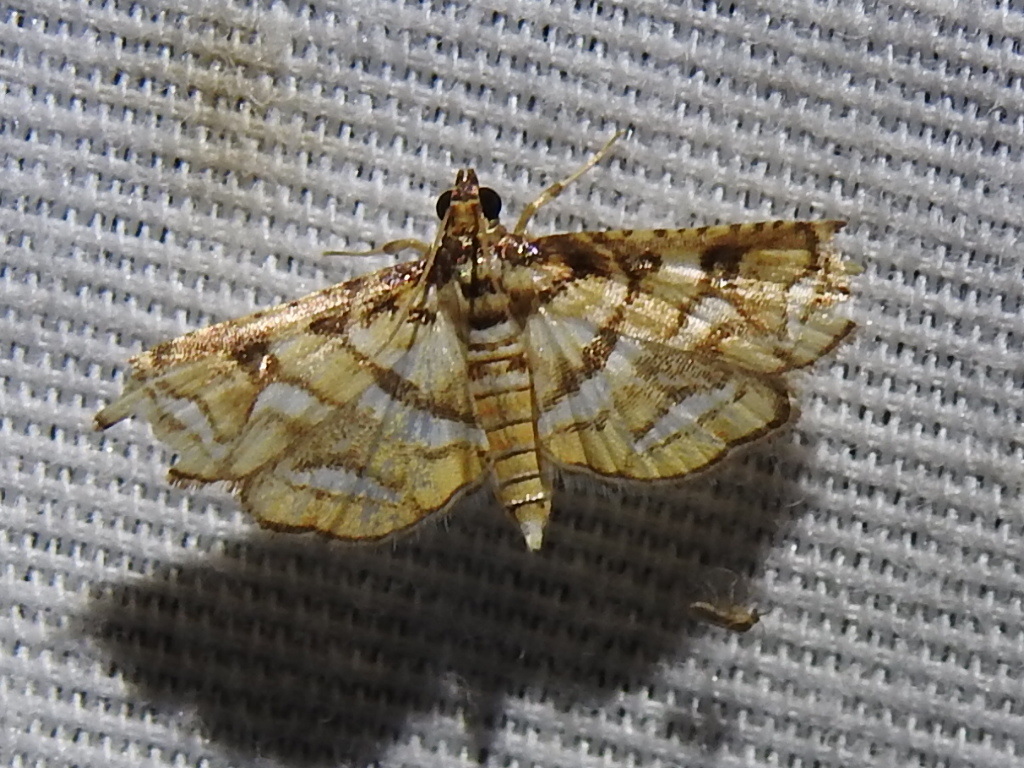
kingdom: Animalia
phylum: Arthropoda
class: Insecta
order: Lepidoptera
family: Crambidae
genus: Hileithia
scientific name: Hileithia magualis
